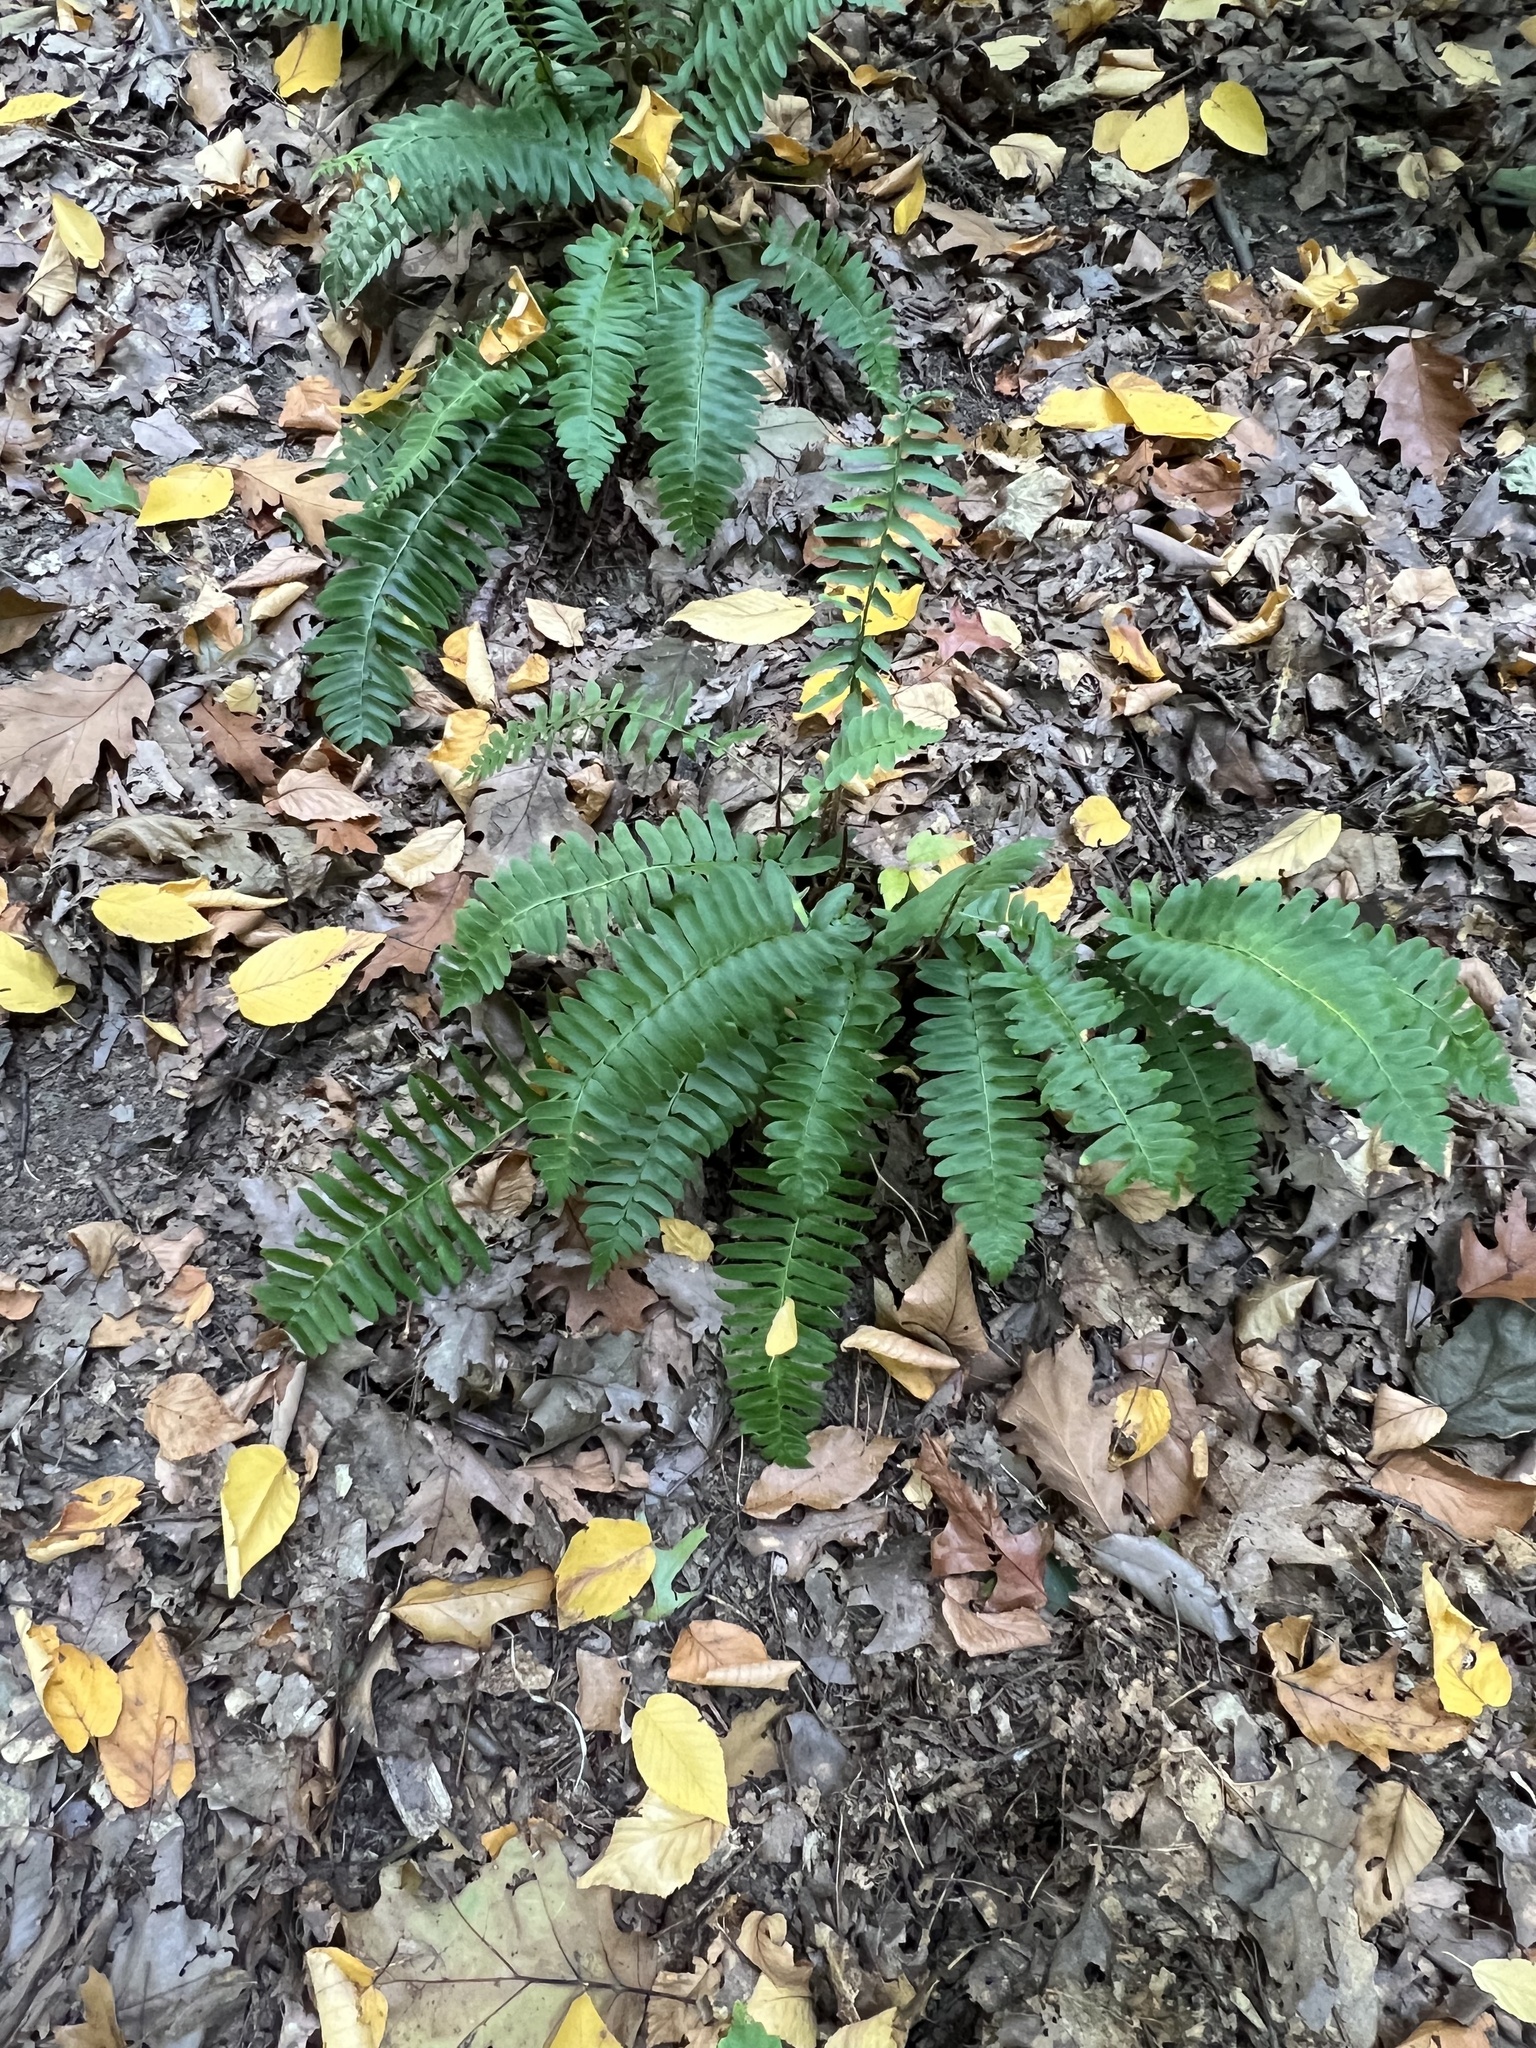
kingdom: Plantae
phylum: Tracheophyta
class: Polypodiopsida
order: Polypodiales
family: Dryopteridaceae
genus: Polystichum
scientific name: Polystichum acrostichoides
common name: Christmas fern
